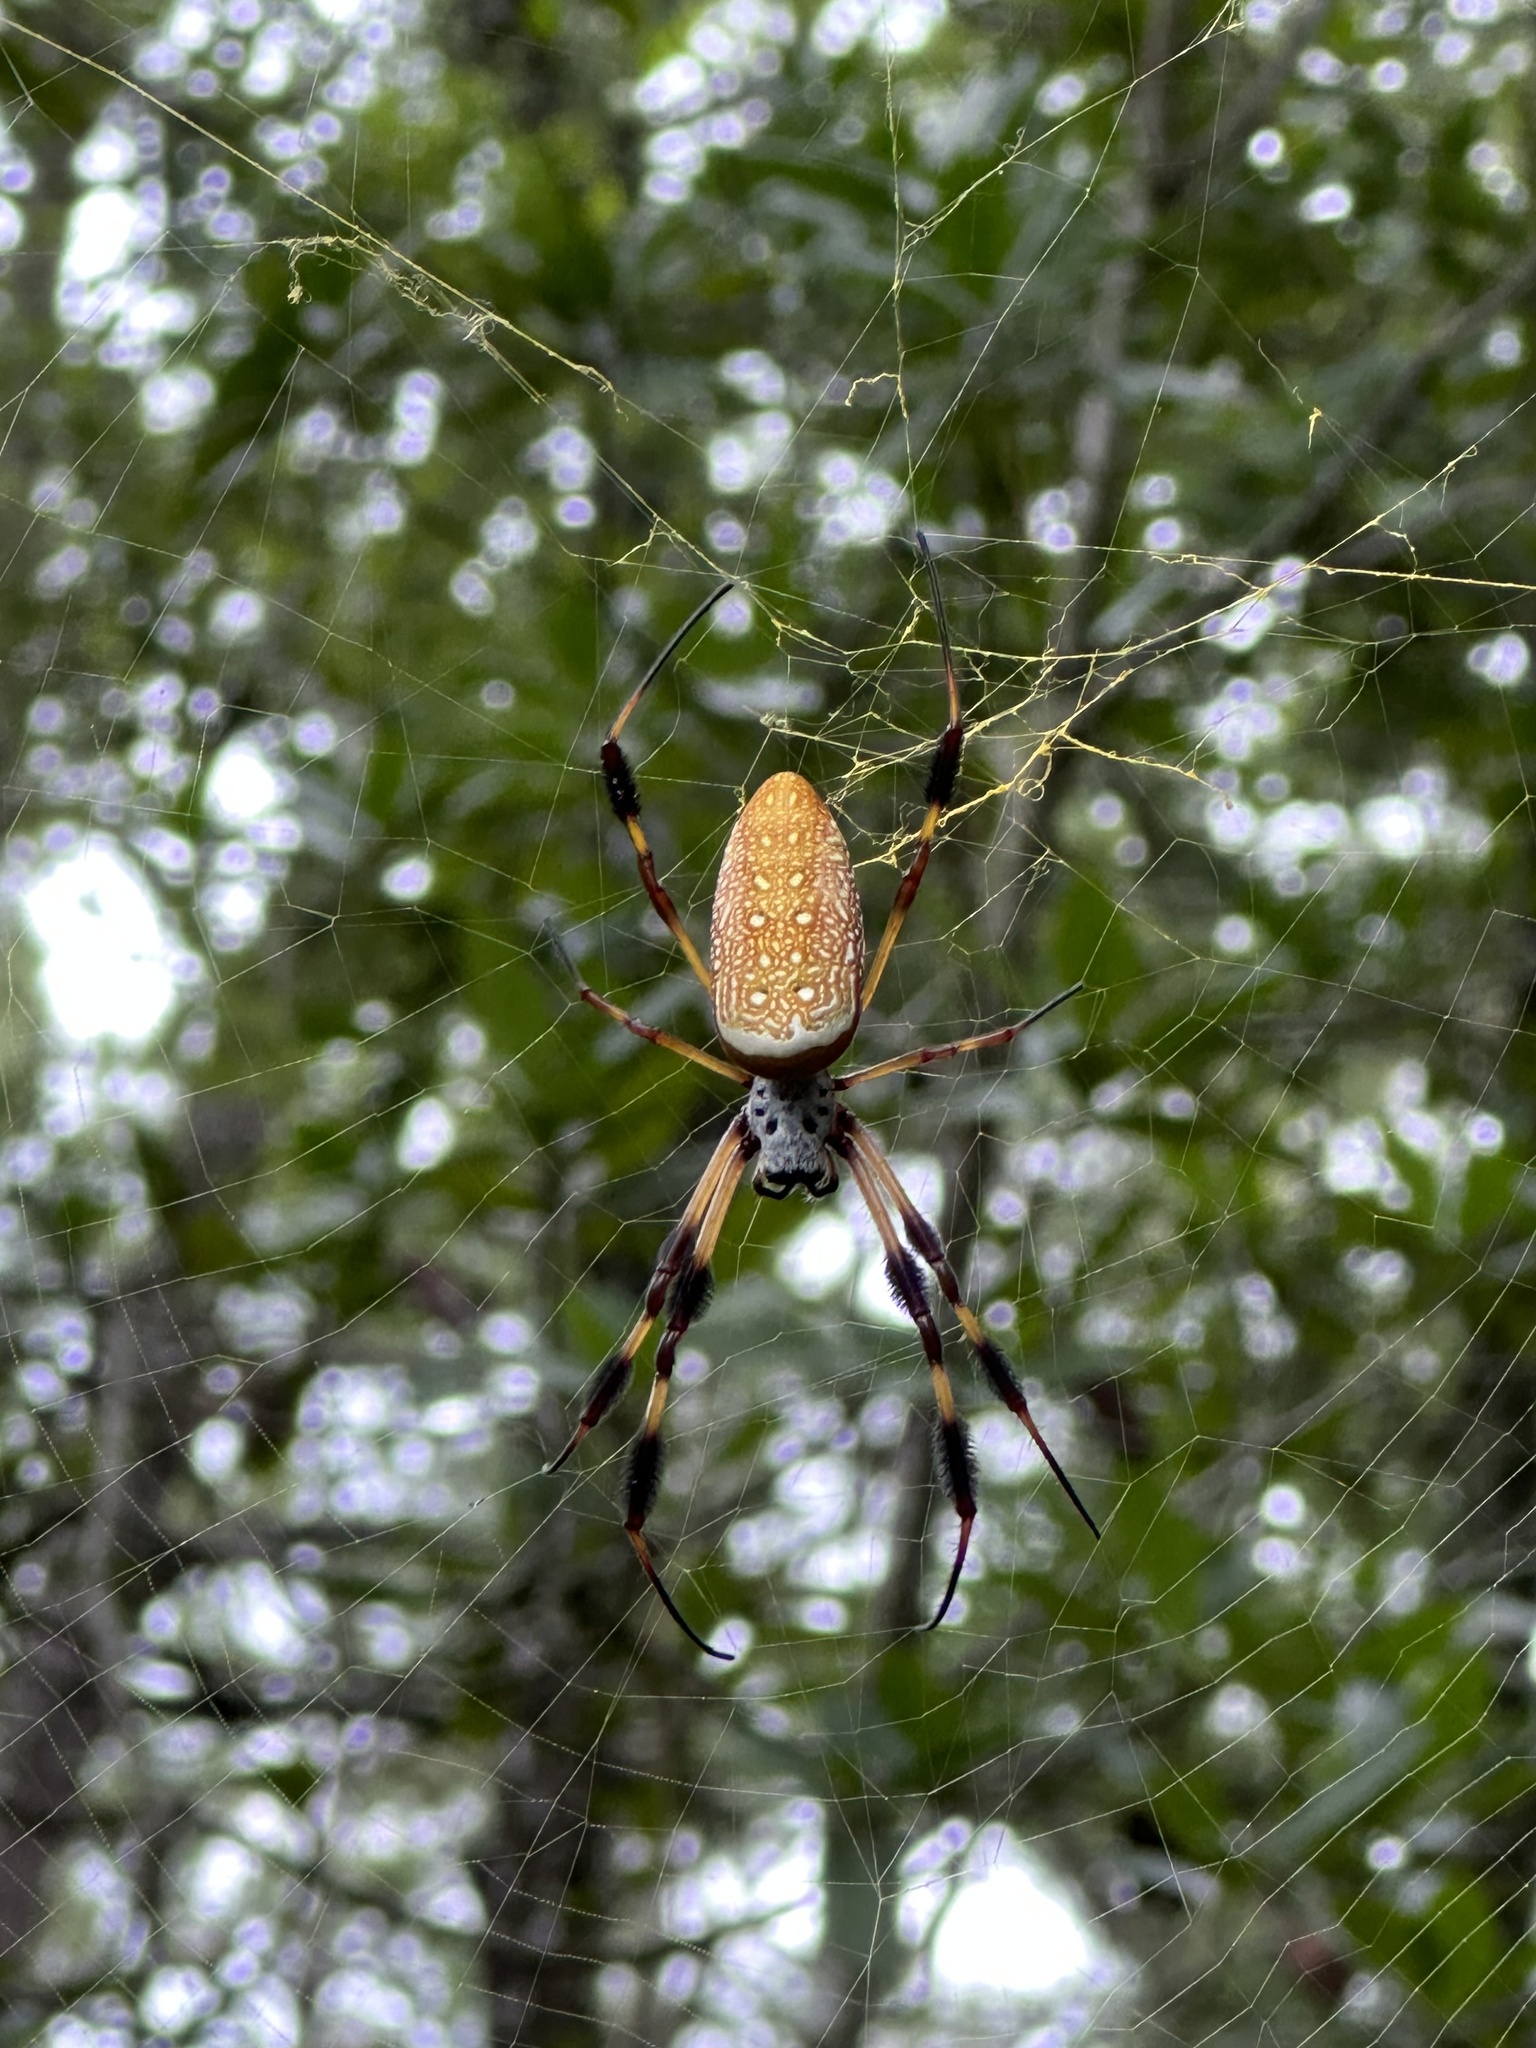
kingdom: Animalia
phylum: Arthropoda
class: Arachnida
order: Araneae
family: Araneidae
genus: Trichonephila
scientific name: Trichonephila clavipes
